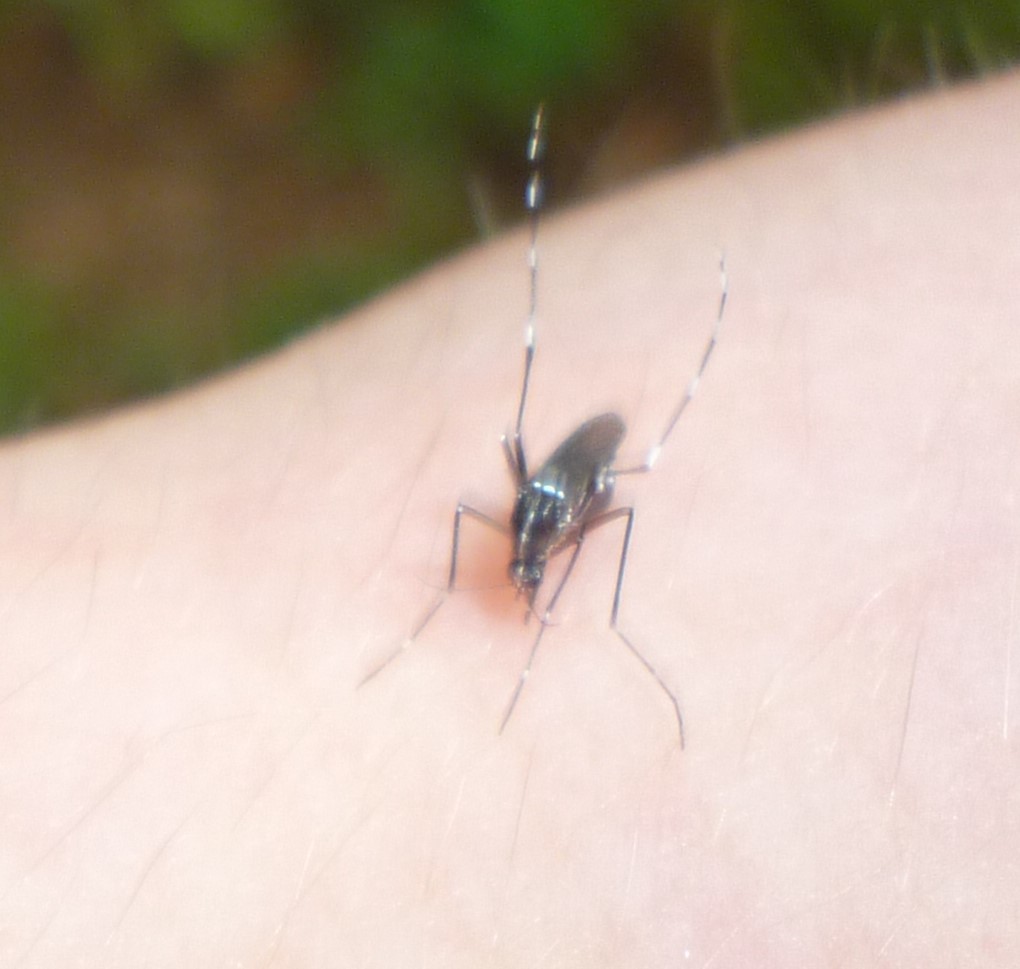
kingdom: Animalia
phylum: Arthropoda
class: Insecta
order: Diptera
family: Culicidae
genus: Aedes
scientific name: Aedes albopictus
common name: Tiger mosquito
